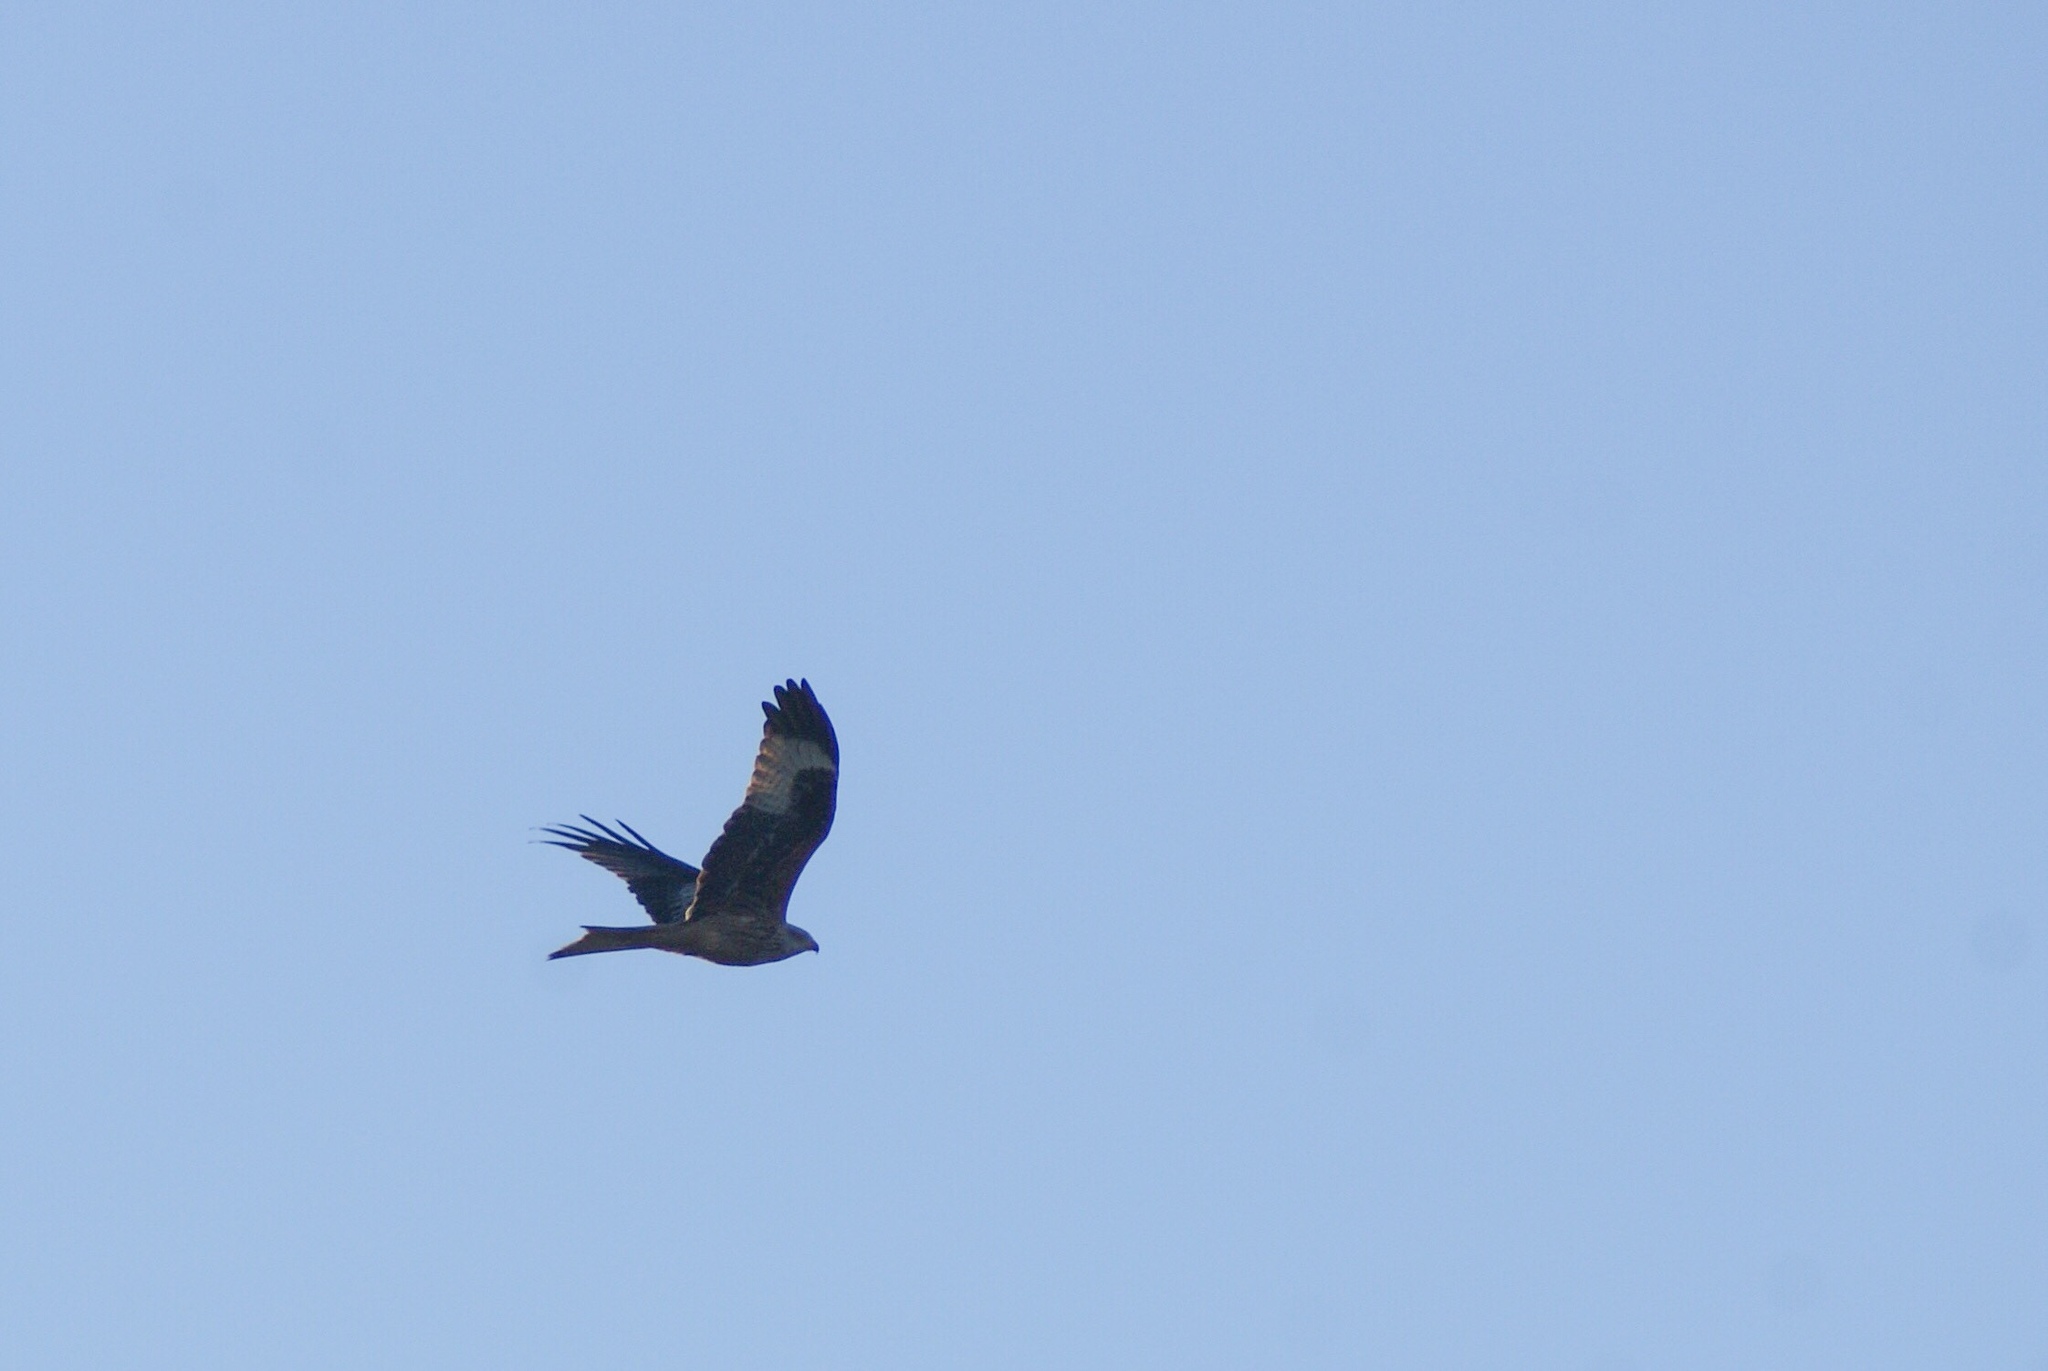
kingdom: Animalia
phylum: Chordata
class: Aves
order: Accipitriformes
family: Accipitridae
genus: Milvus
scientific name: Milvus milvus
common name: Red kite
